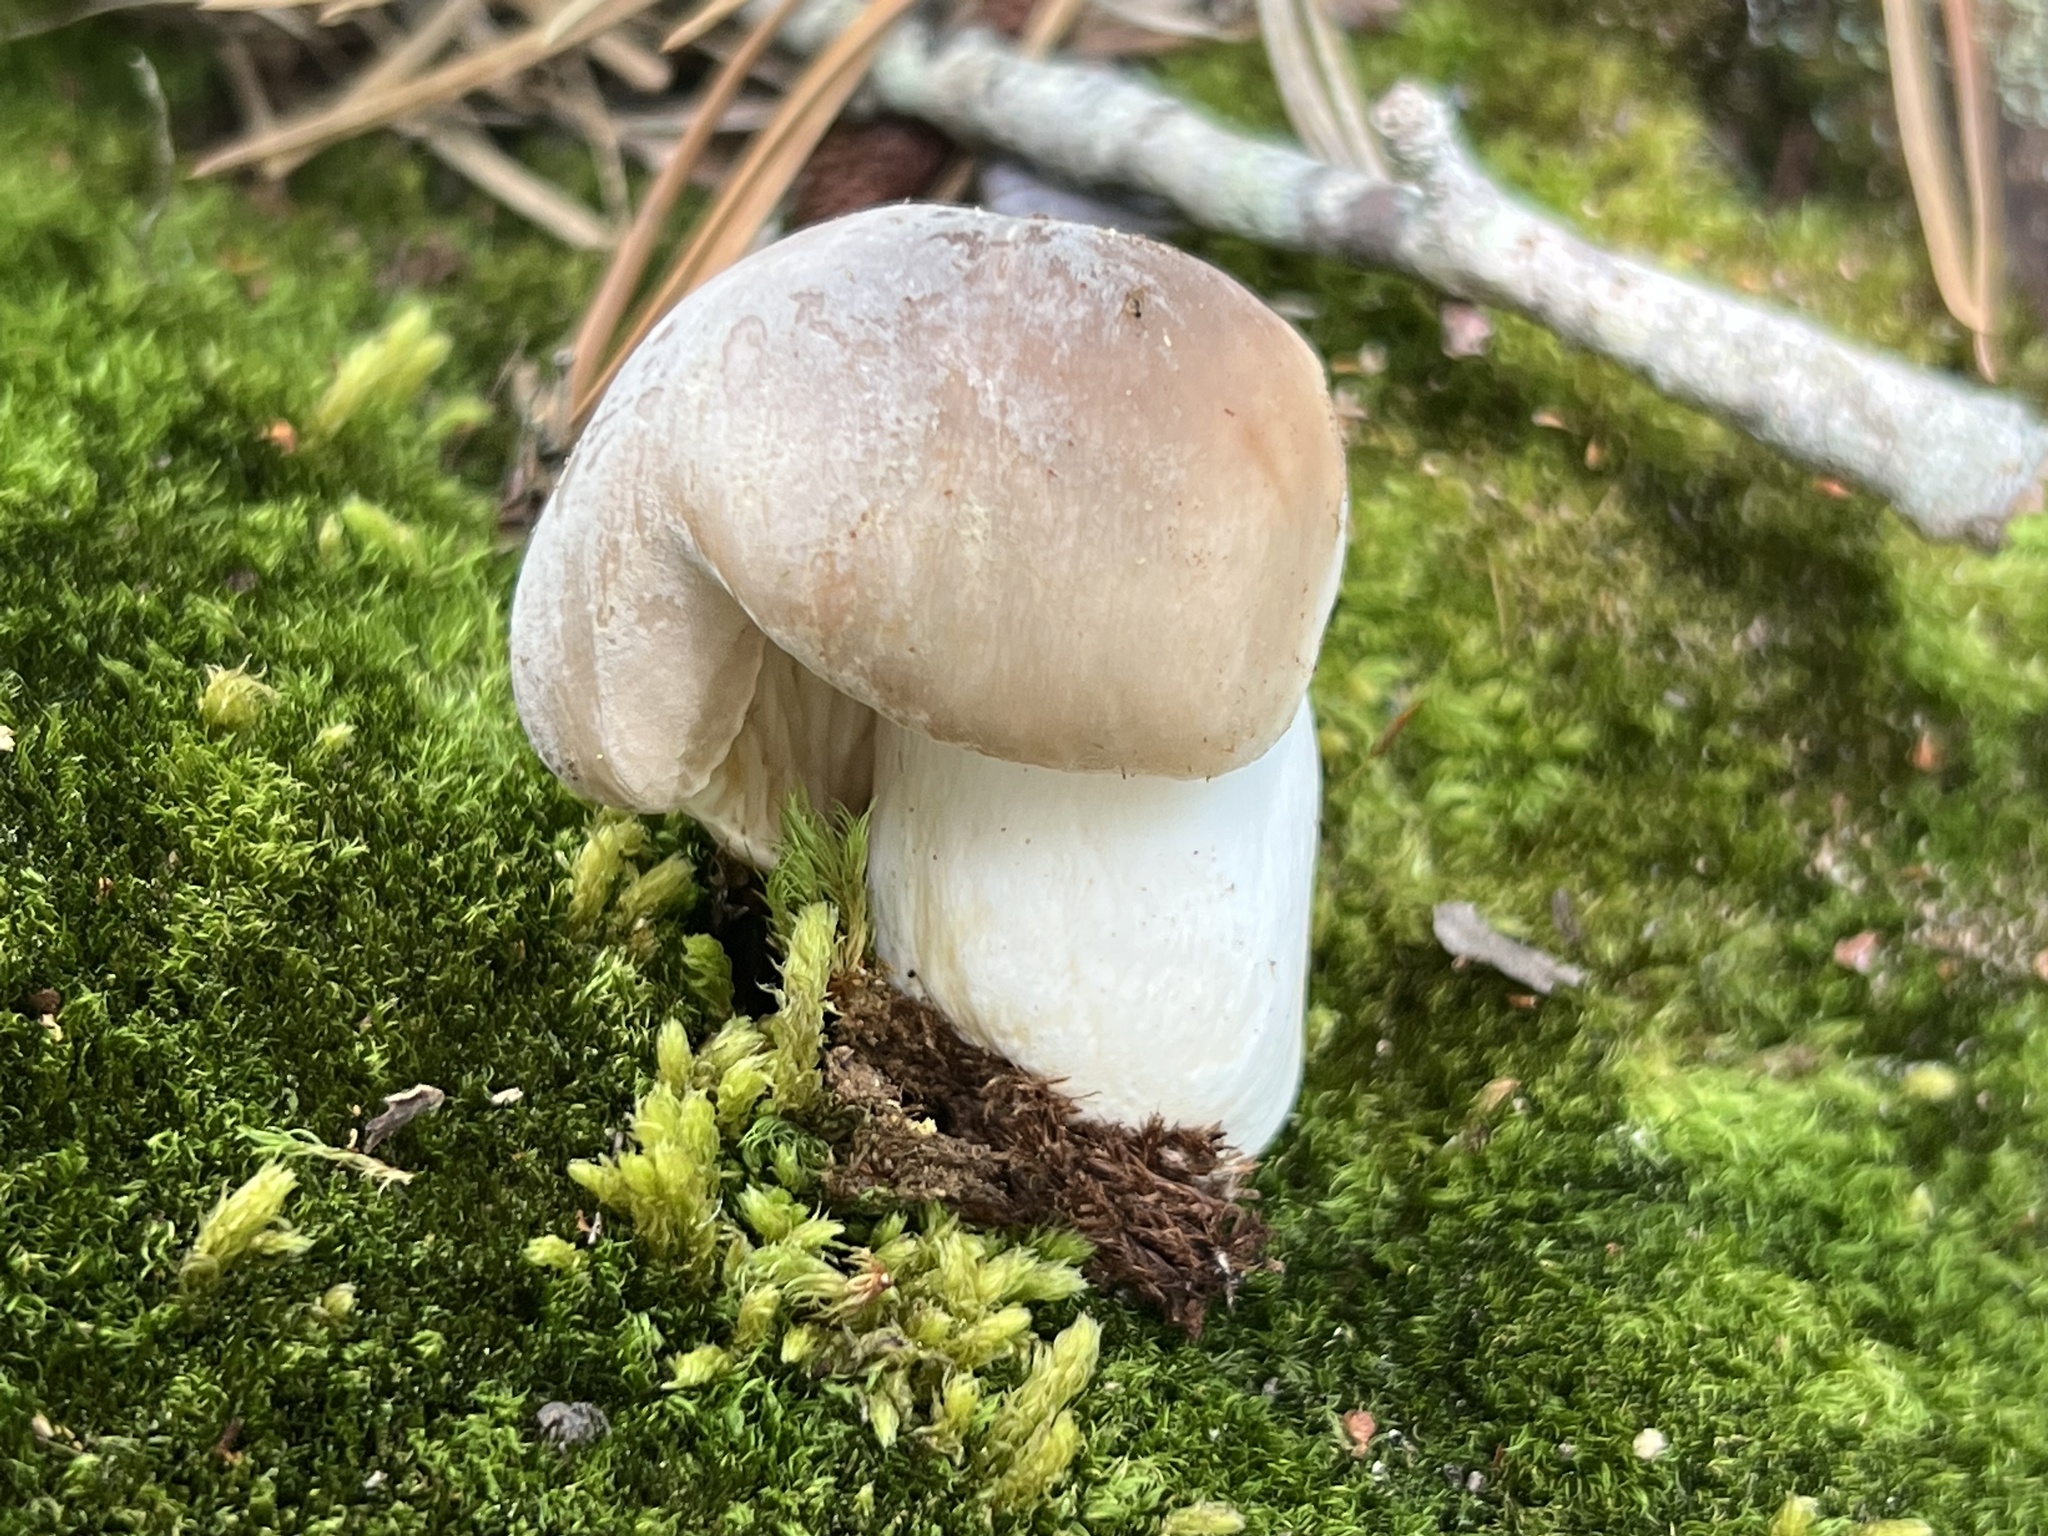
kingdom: Fungi
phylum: Basidiomycota
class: Agaricomycetes
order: Russulales
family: Russulaceae
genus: Russula
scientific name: Russula
